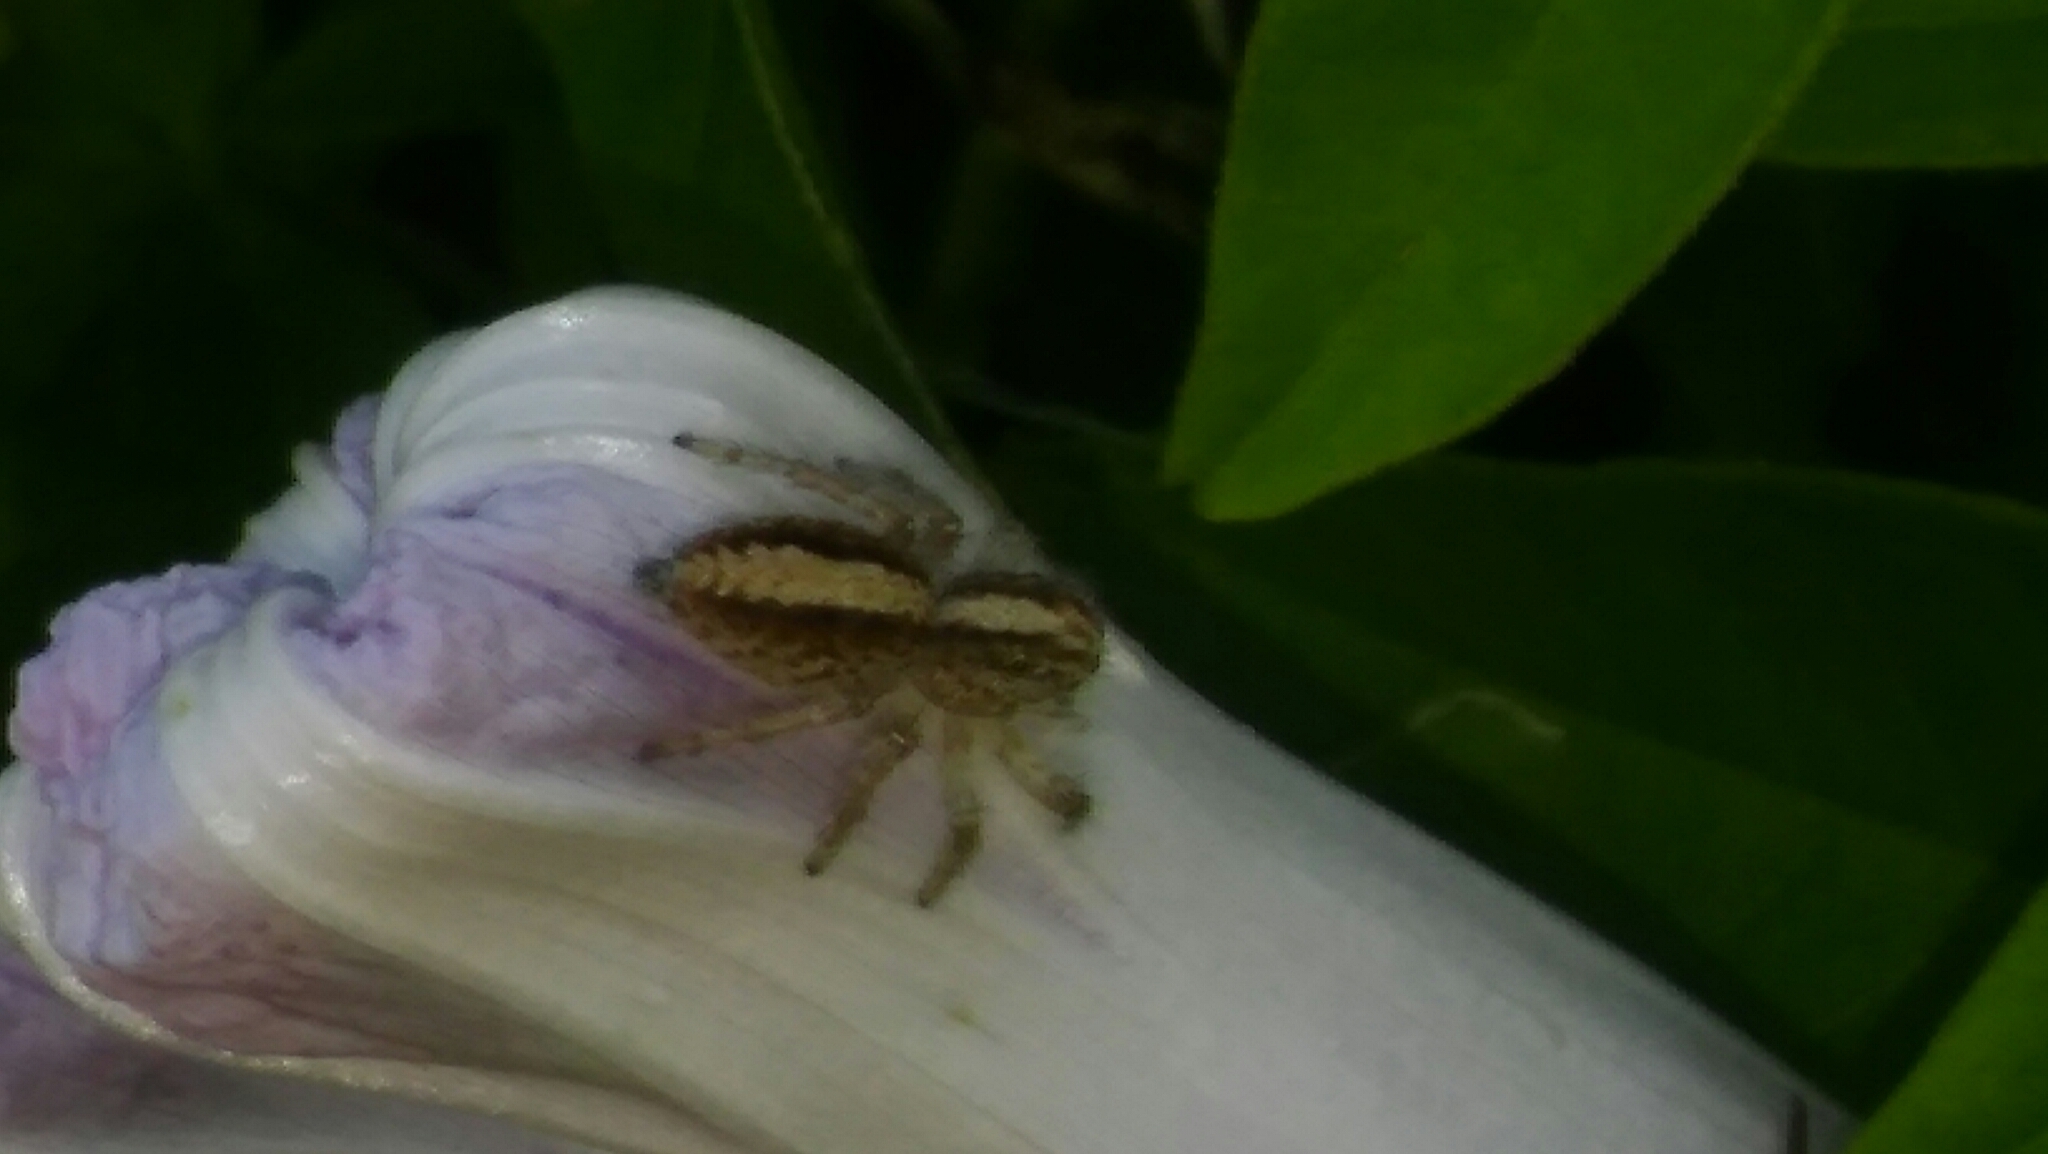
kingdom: Animalia
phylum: Arthropoda
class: Arachnida
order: Araneae
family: Salticidae
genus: Megafreya
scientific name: Megafreya sutrix
